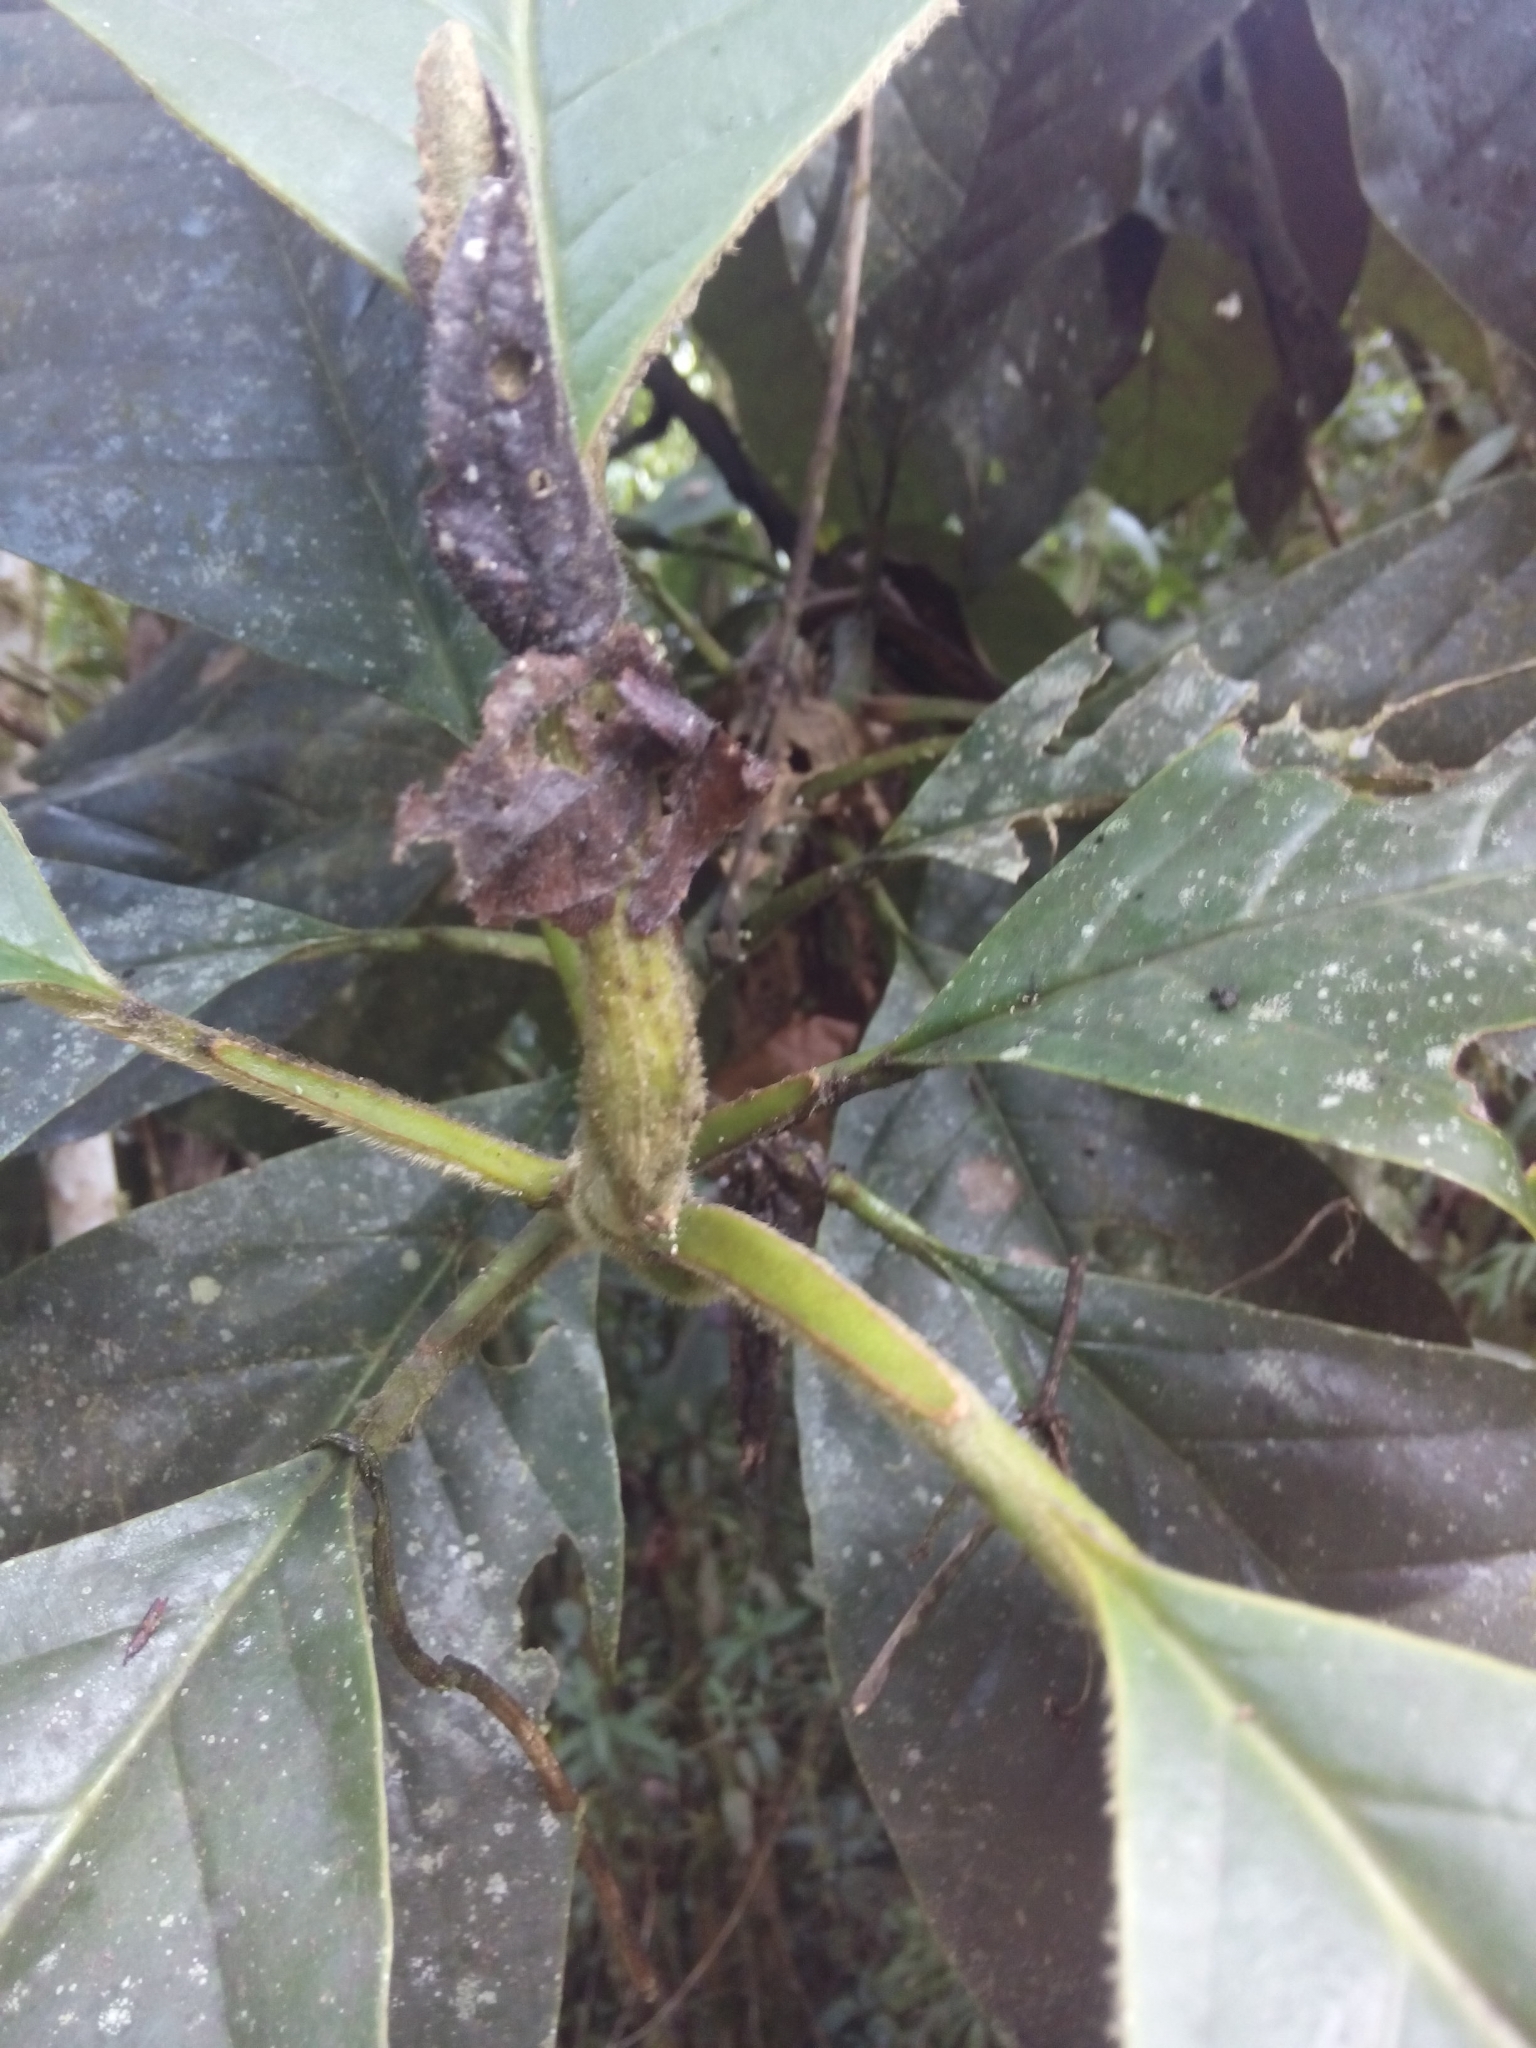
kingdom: Plantae
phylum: Tracheophyta
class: Magnoliopsida
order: Magnoliales
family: Magnoliaceae
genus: Magnolia
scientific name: Magnolia jardinensis
